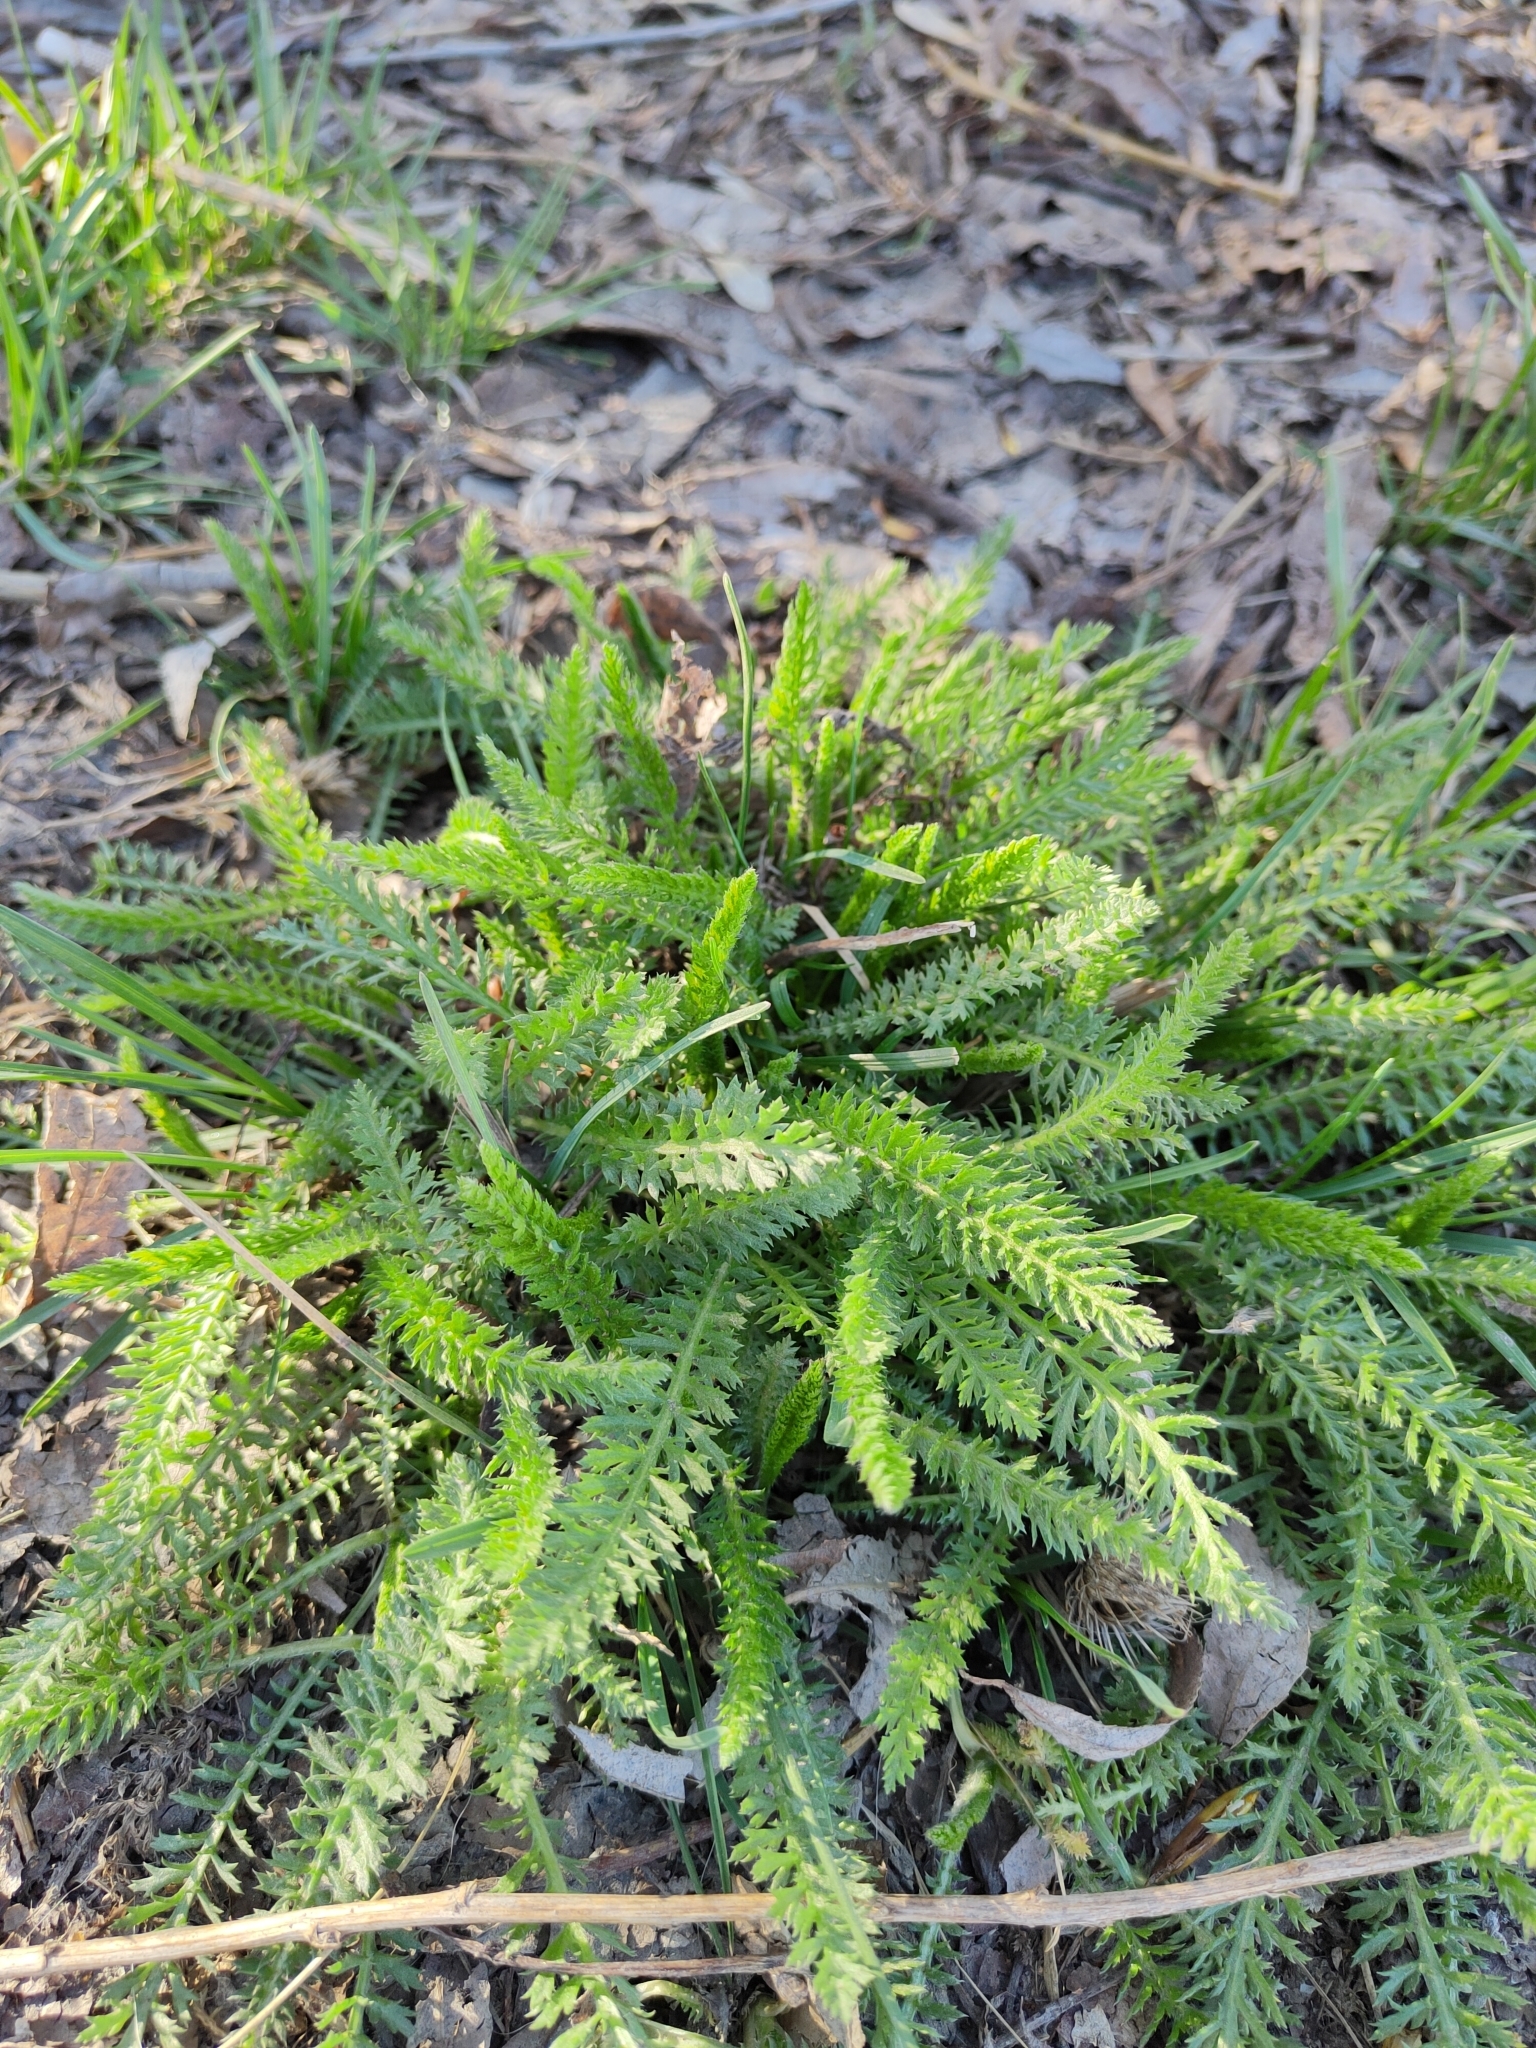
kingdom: Plantae
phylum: Tracheophyta
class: Magnoliopsida
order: Asterales
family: Asteraceae
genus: Achillea
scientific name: Achillea millefolium
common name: Yarrow
